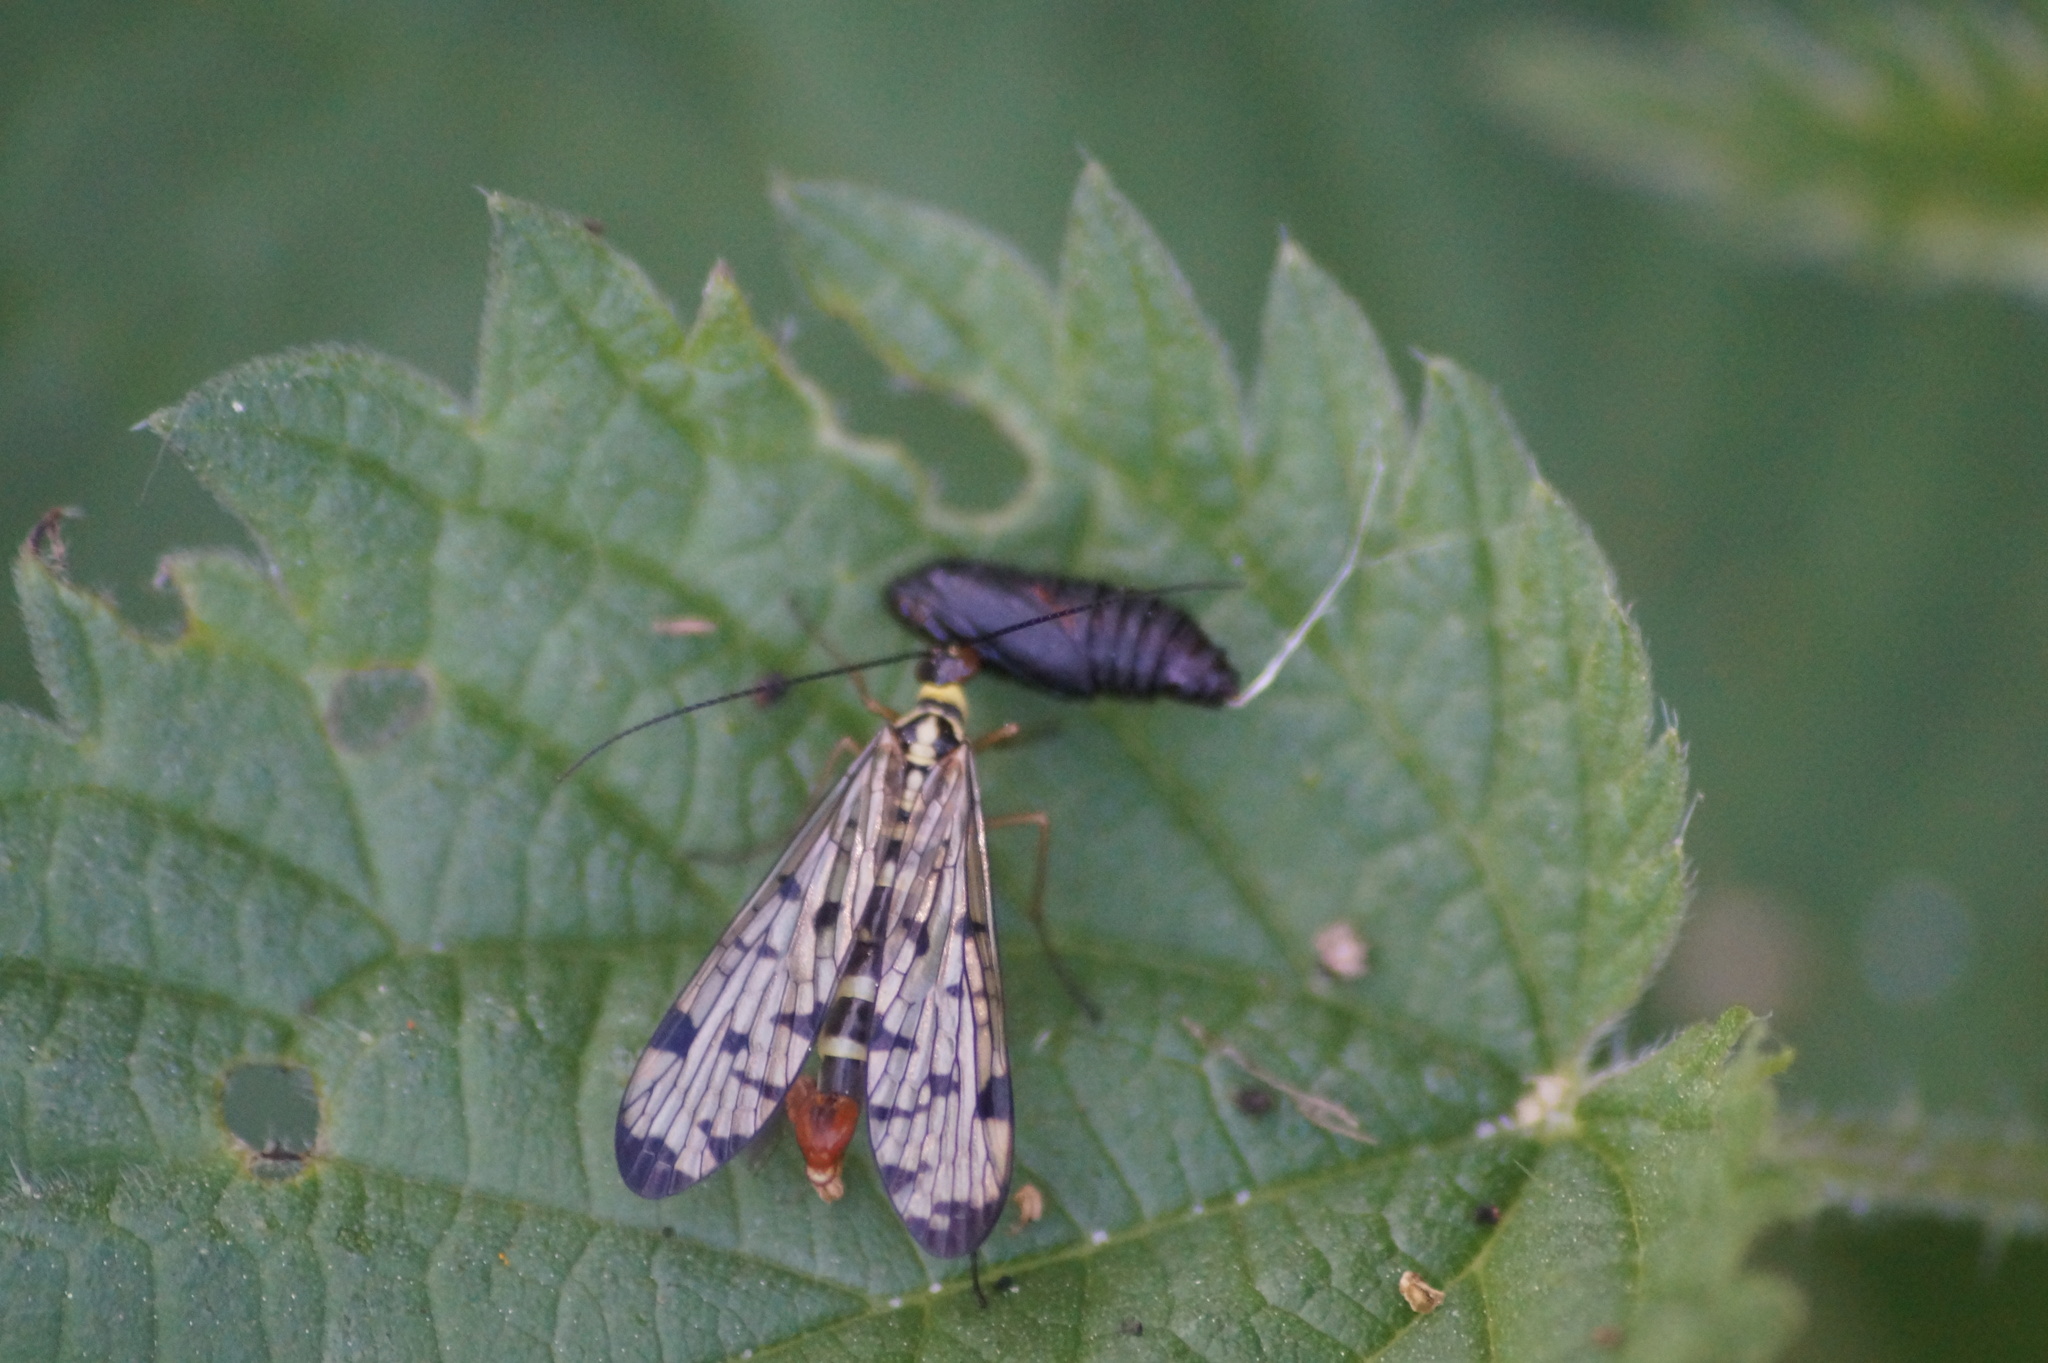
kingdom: Animalia
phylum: Arthropoda
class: Insecta
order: Mecoptera
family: Panorpidae
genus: Panorpa
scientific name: Panorpa germanica
